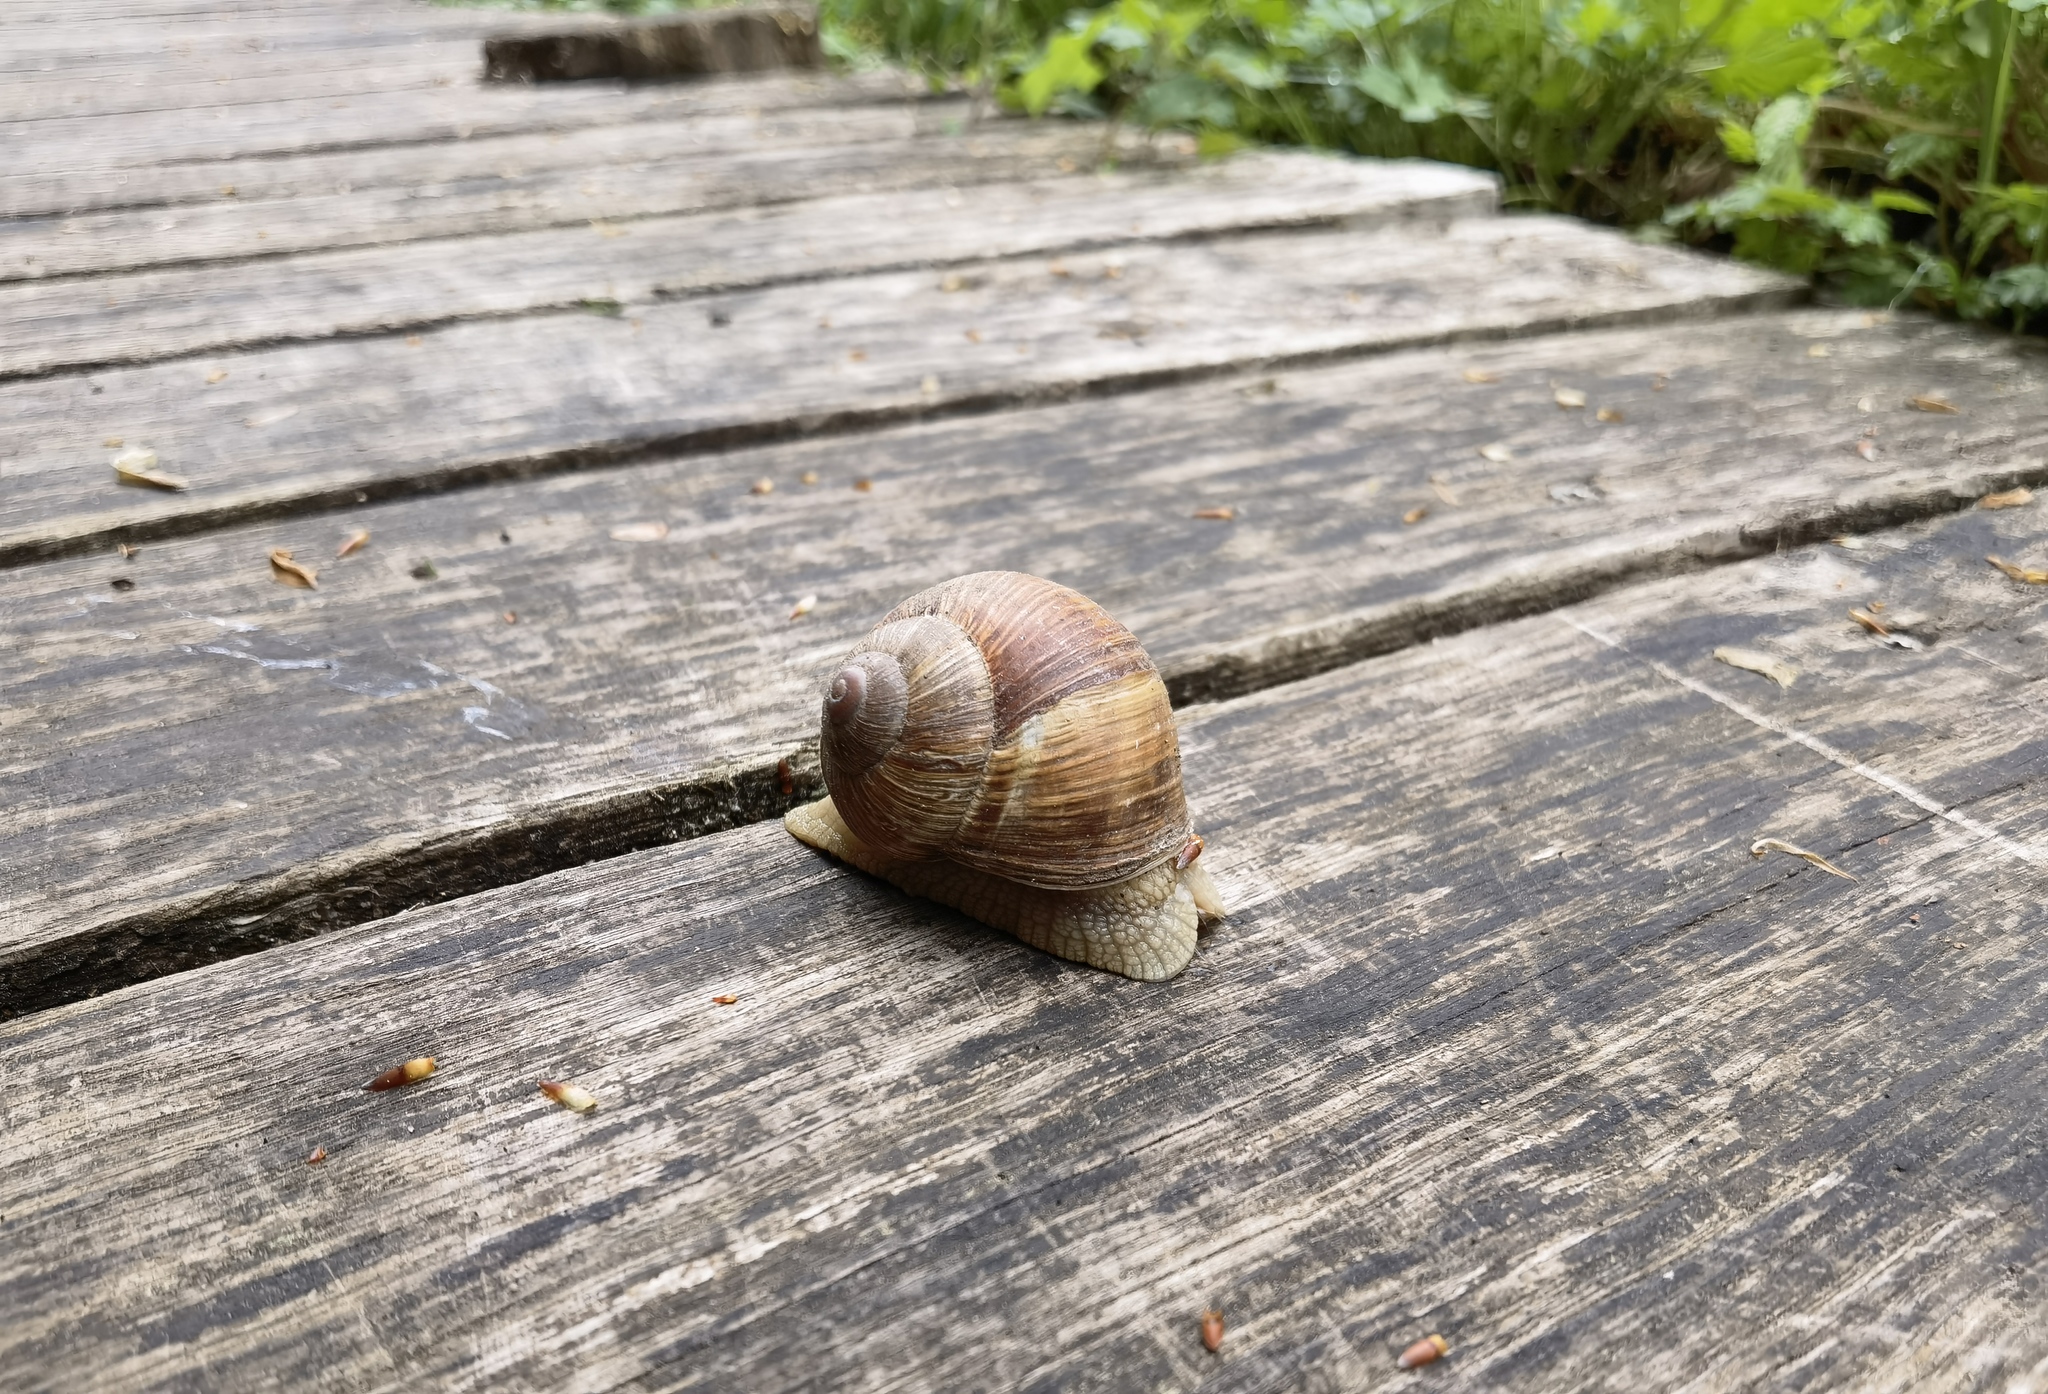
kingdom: Animalia
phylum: Mollusca
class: Gastropoda
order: Stylommatophora
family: Helicidae
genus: Helix
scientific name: Helix pomatia
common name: Roman snail
